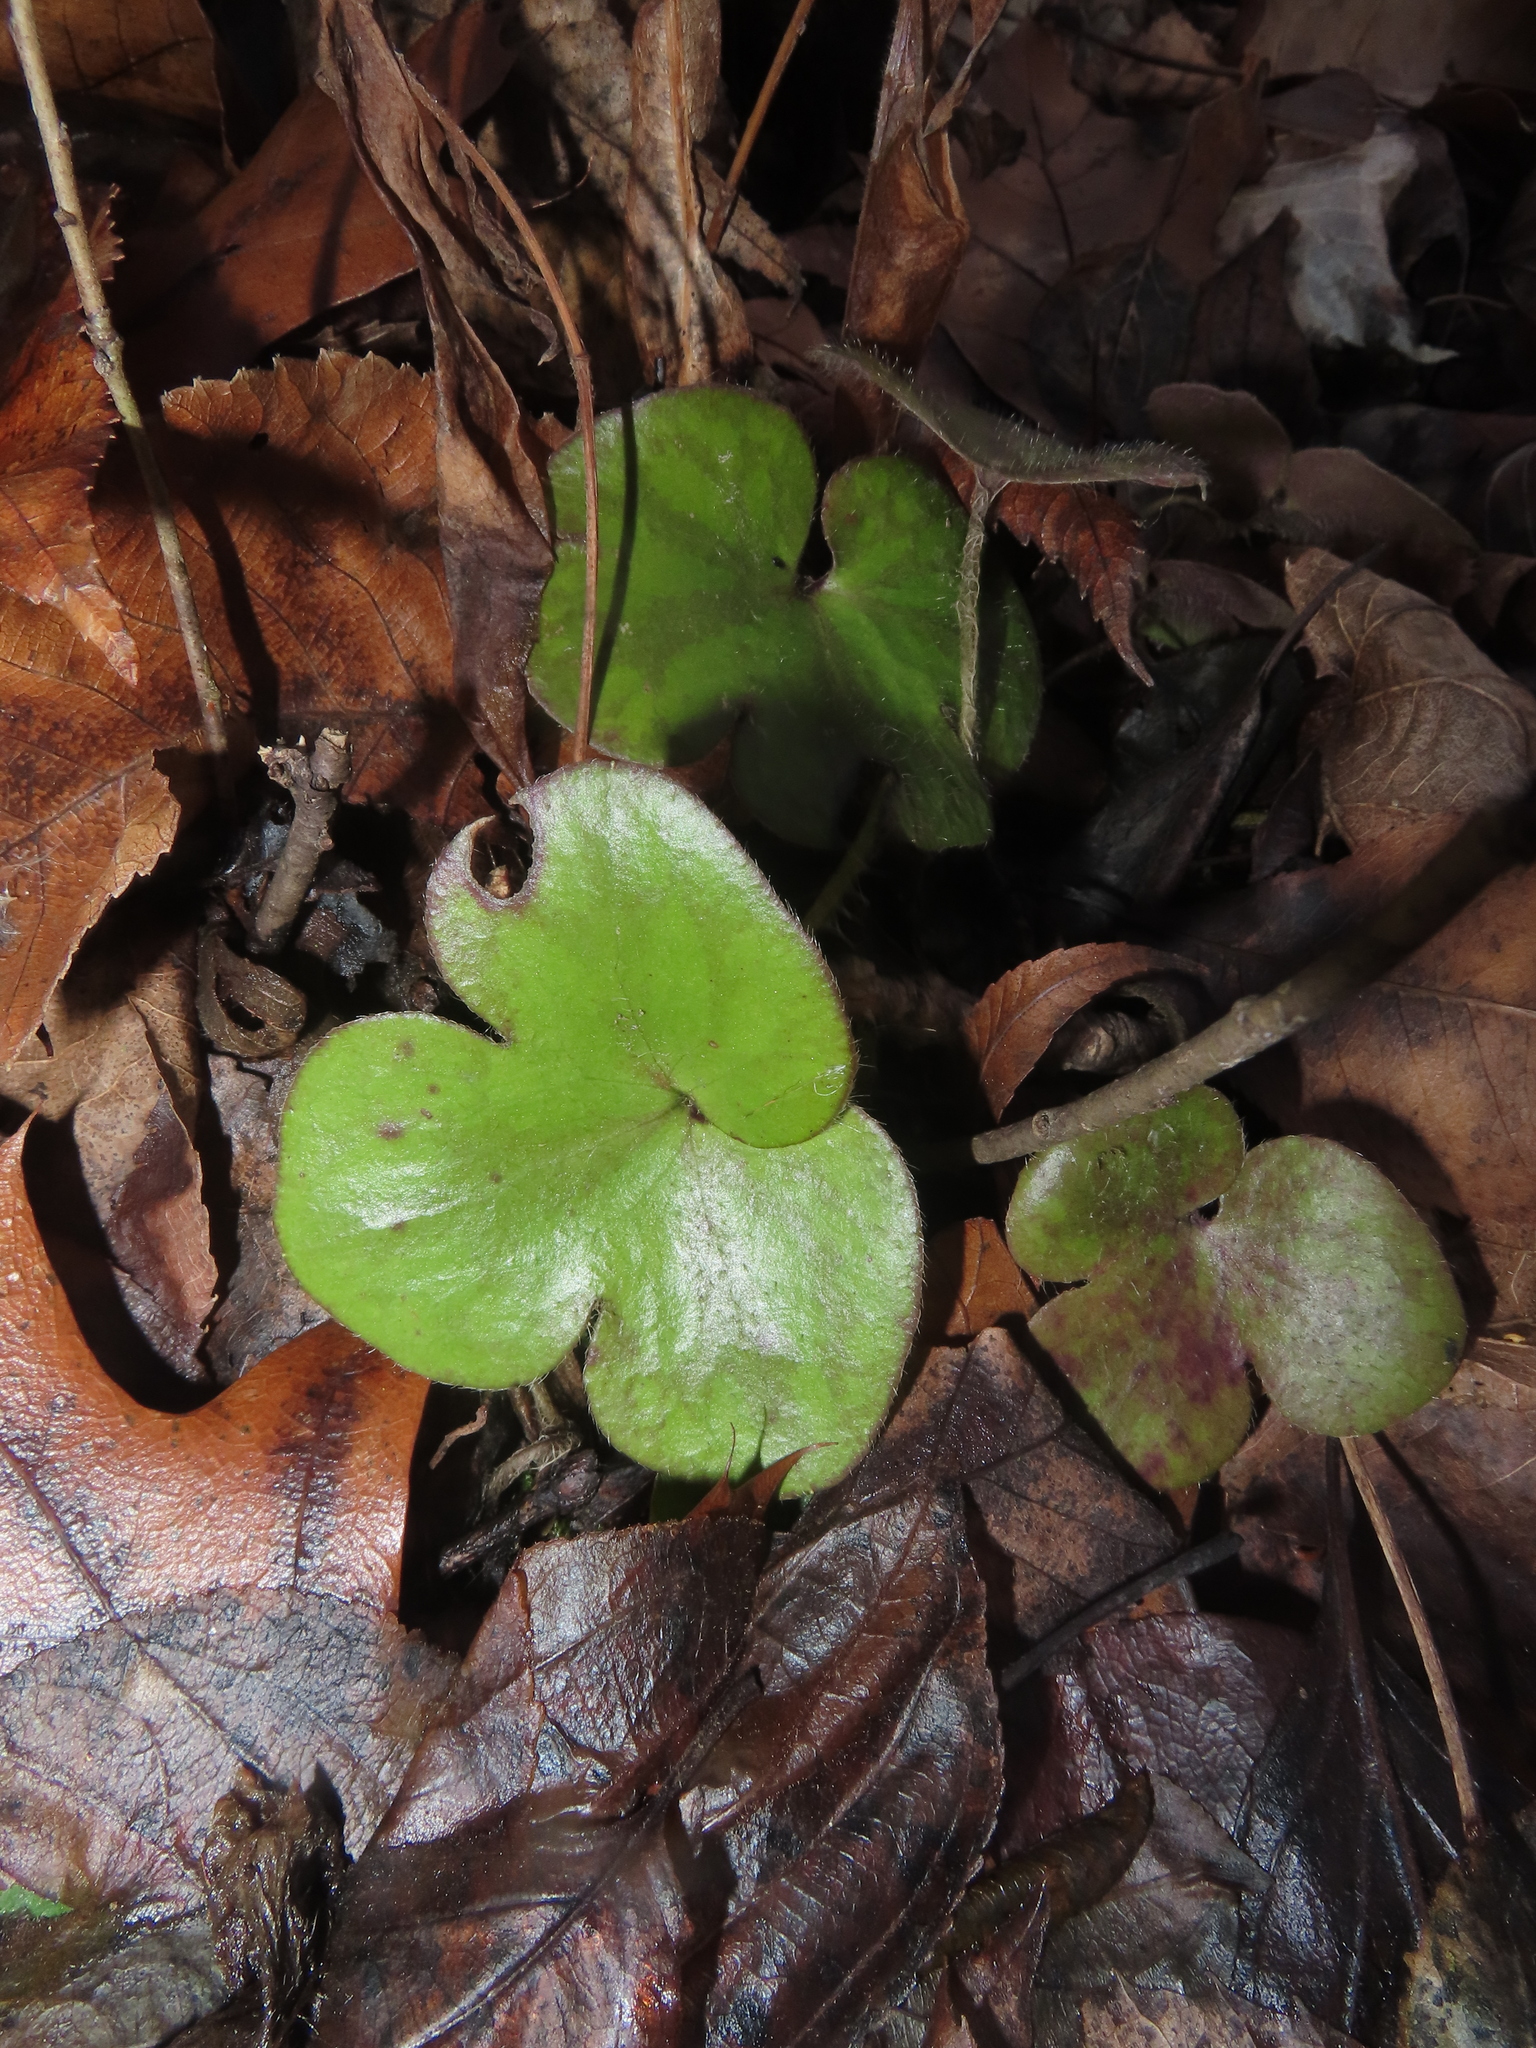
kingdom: Plantae
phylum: Tracheophyta
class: Magnoliopsida
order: Ranunculales
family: Ranunculaceae
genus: Hepatica
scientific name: Hepatica americana
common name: American hepatica
